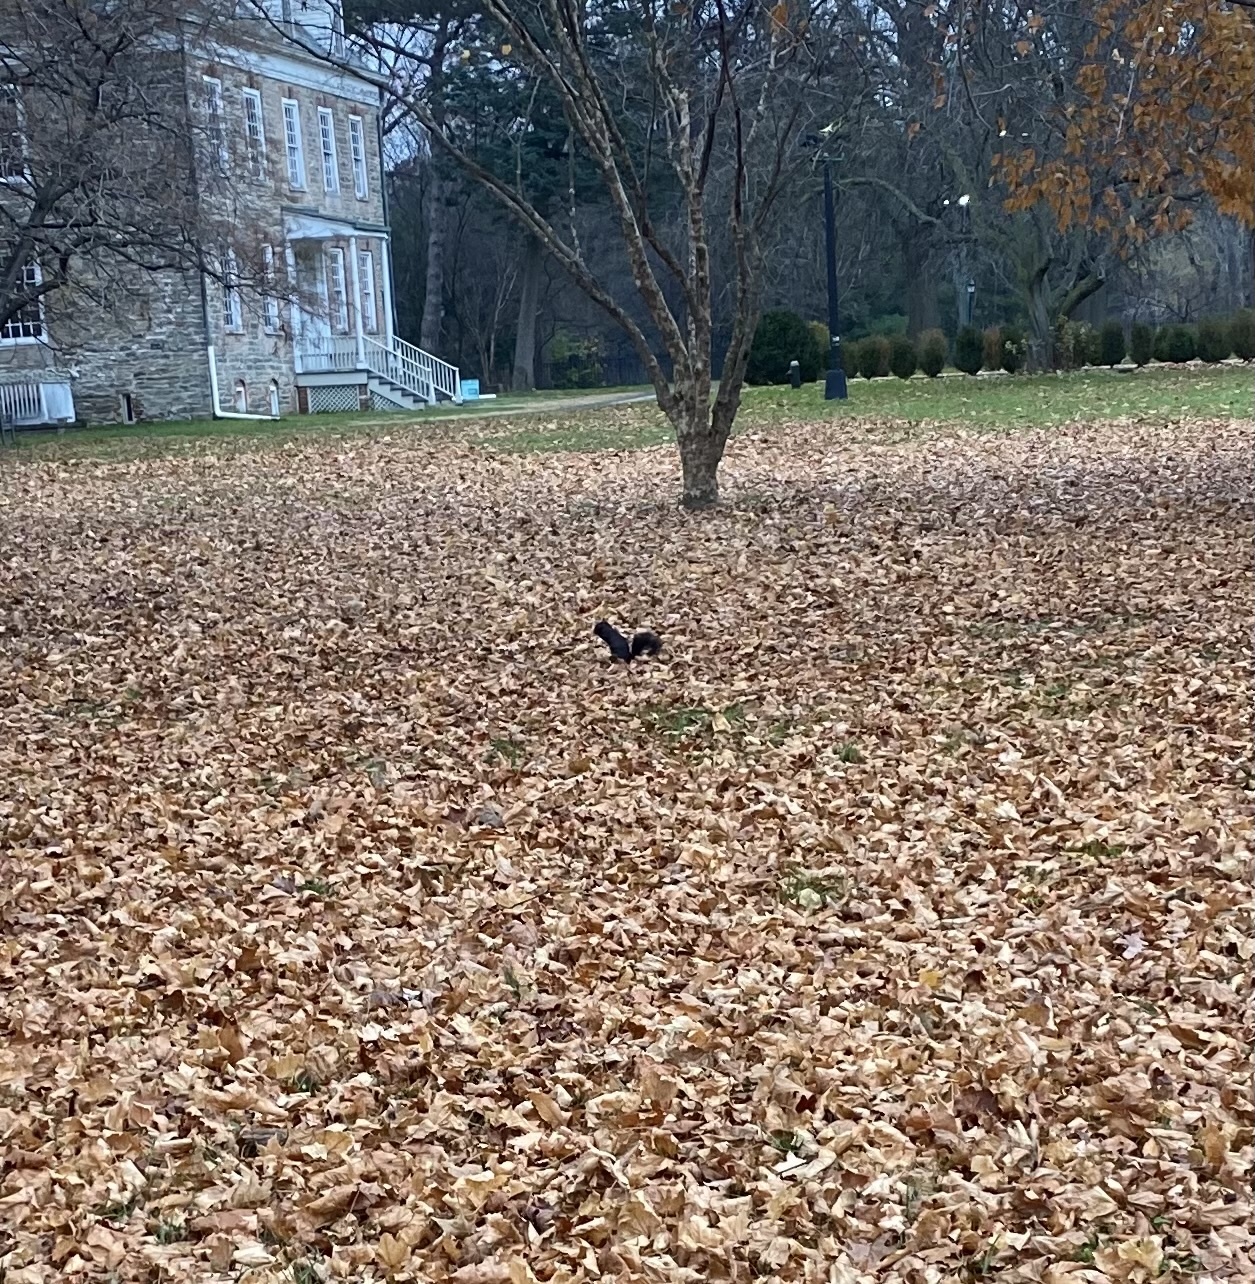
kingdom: Animalia
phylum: Chordata
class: Mammalia
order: Rodentia
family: Sciuridae
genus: Sciurus
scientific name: Sciurus carolinensis
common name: Eastern gray squirrel
